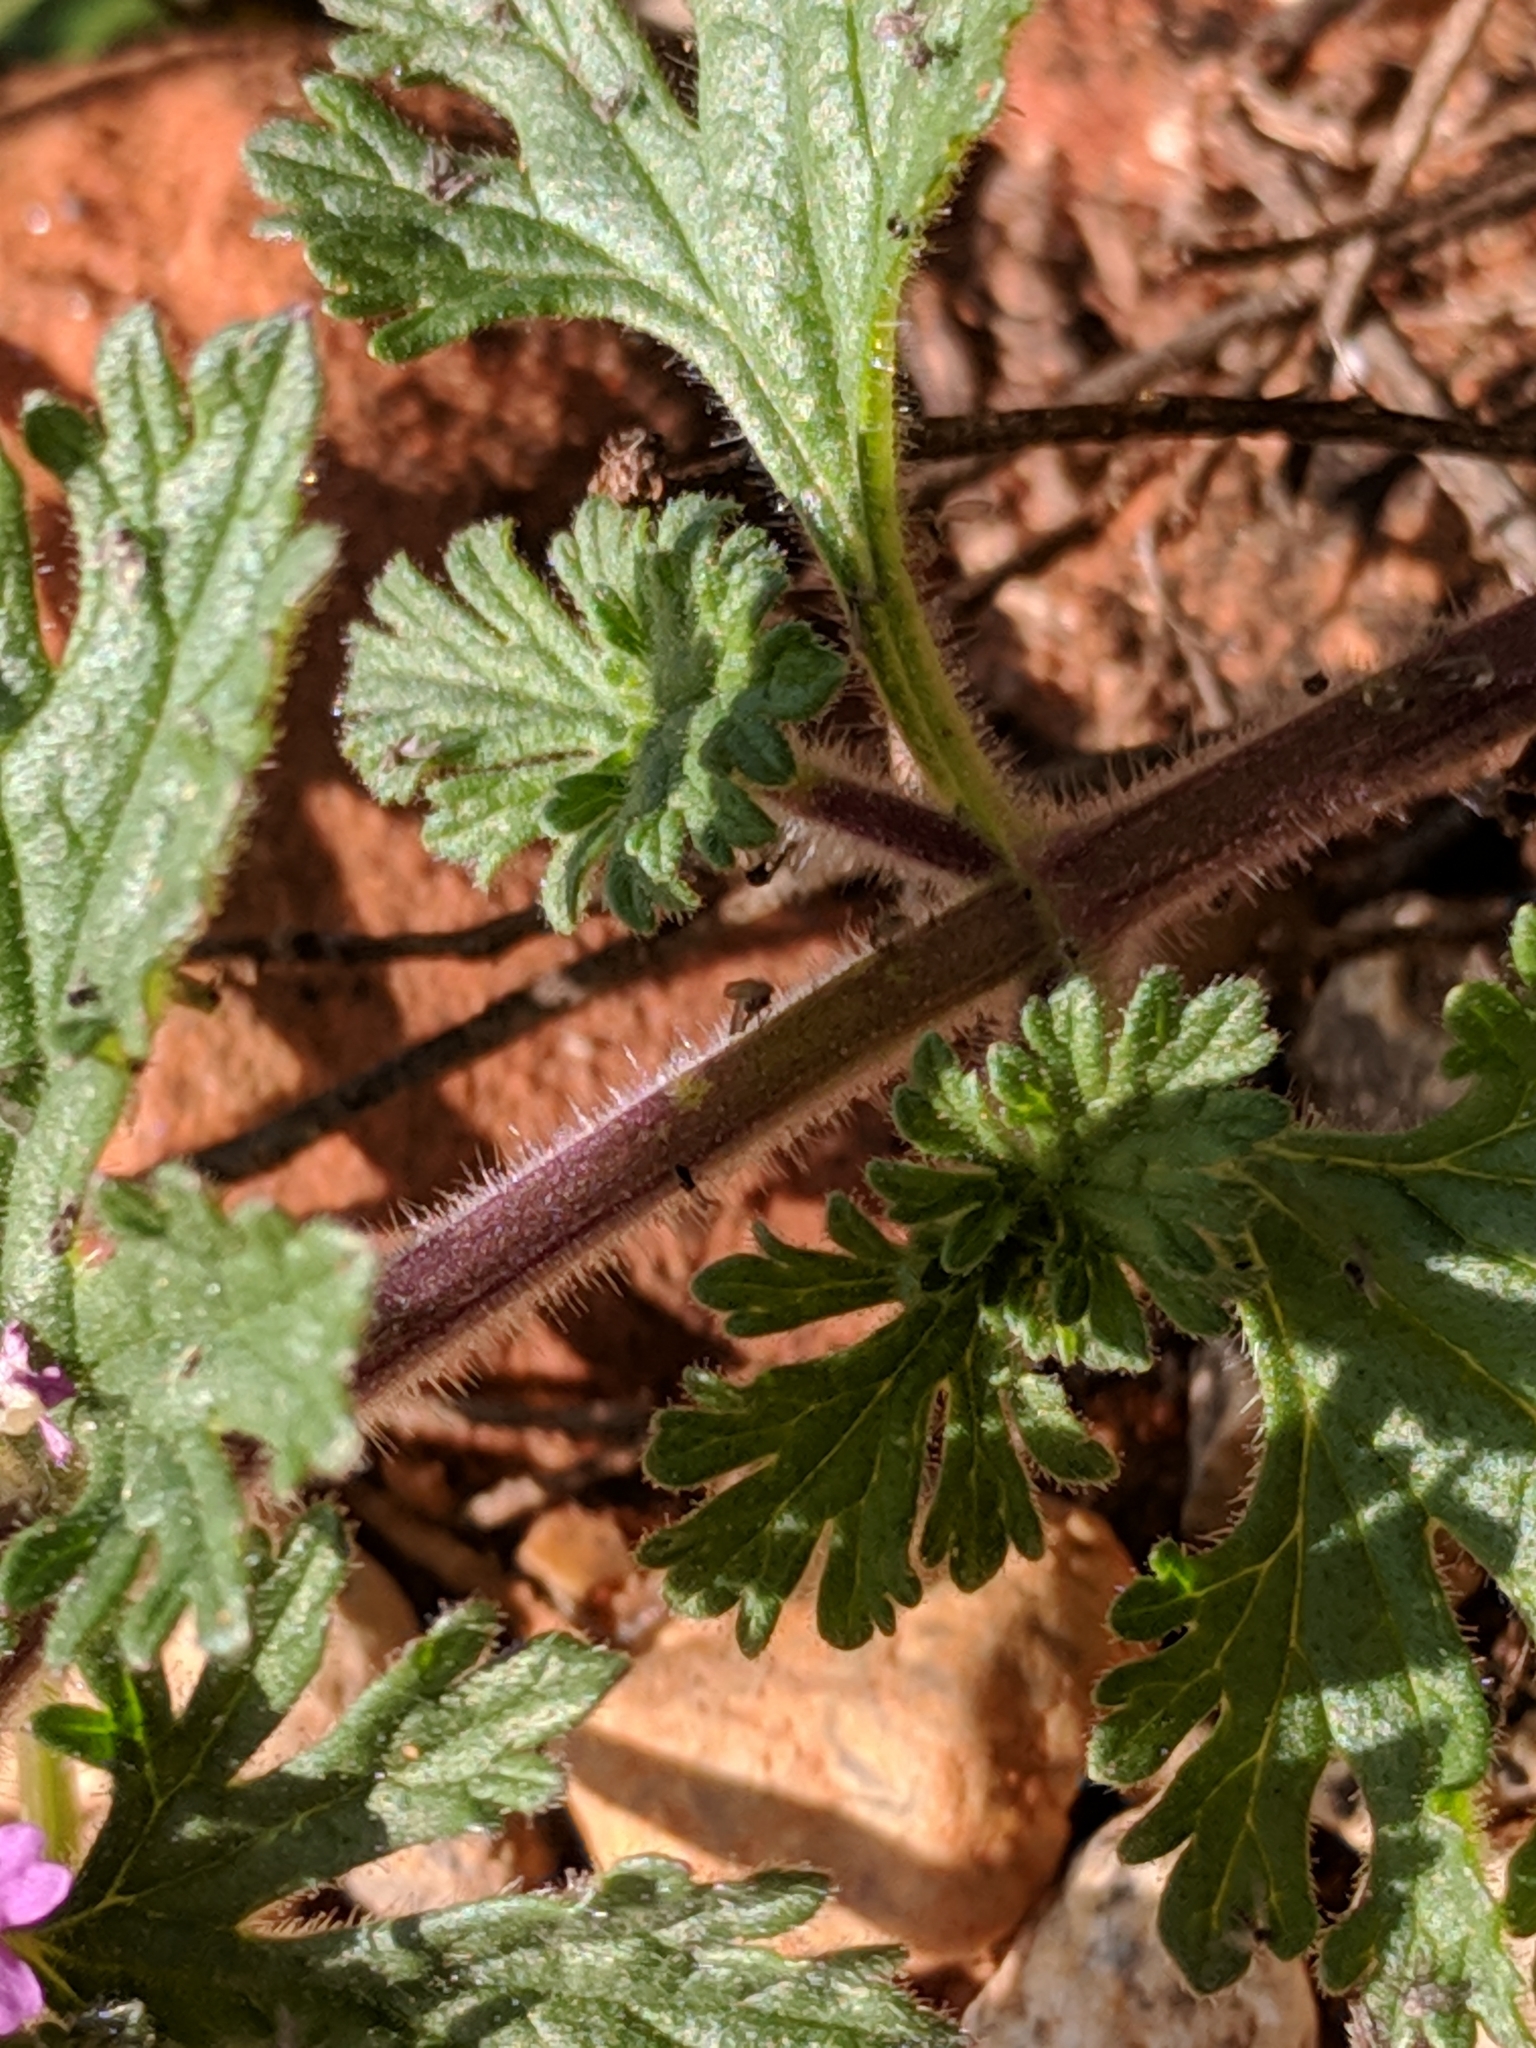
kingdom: Plantae
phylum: Tracheophyta
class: Magnoliopsida
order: Lamiales
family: Verbenaceae
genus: Verbena
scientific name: Verbena pumila
